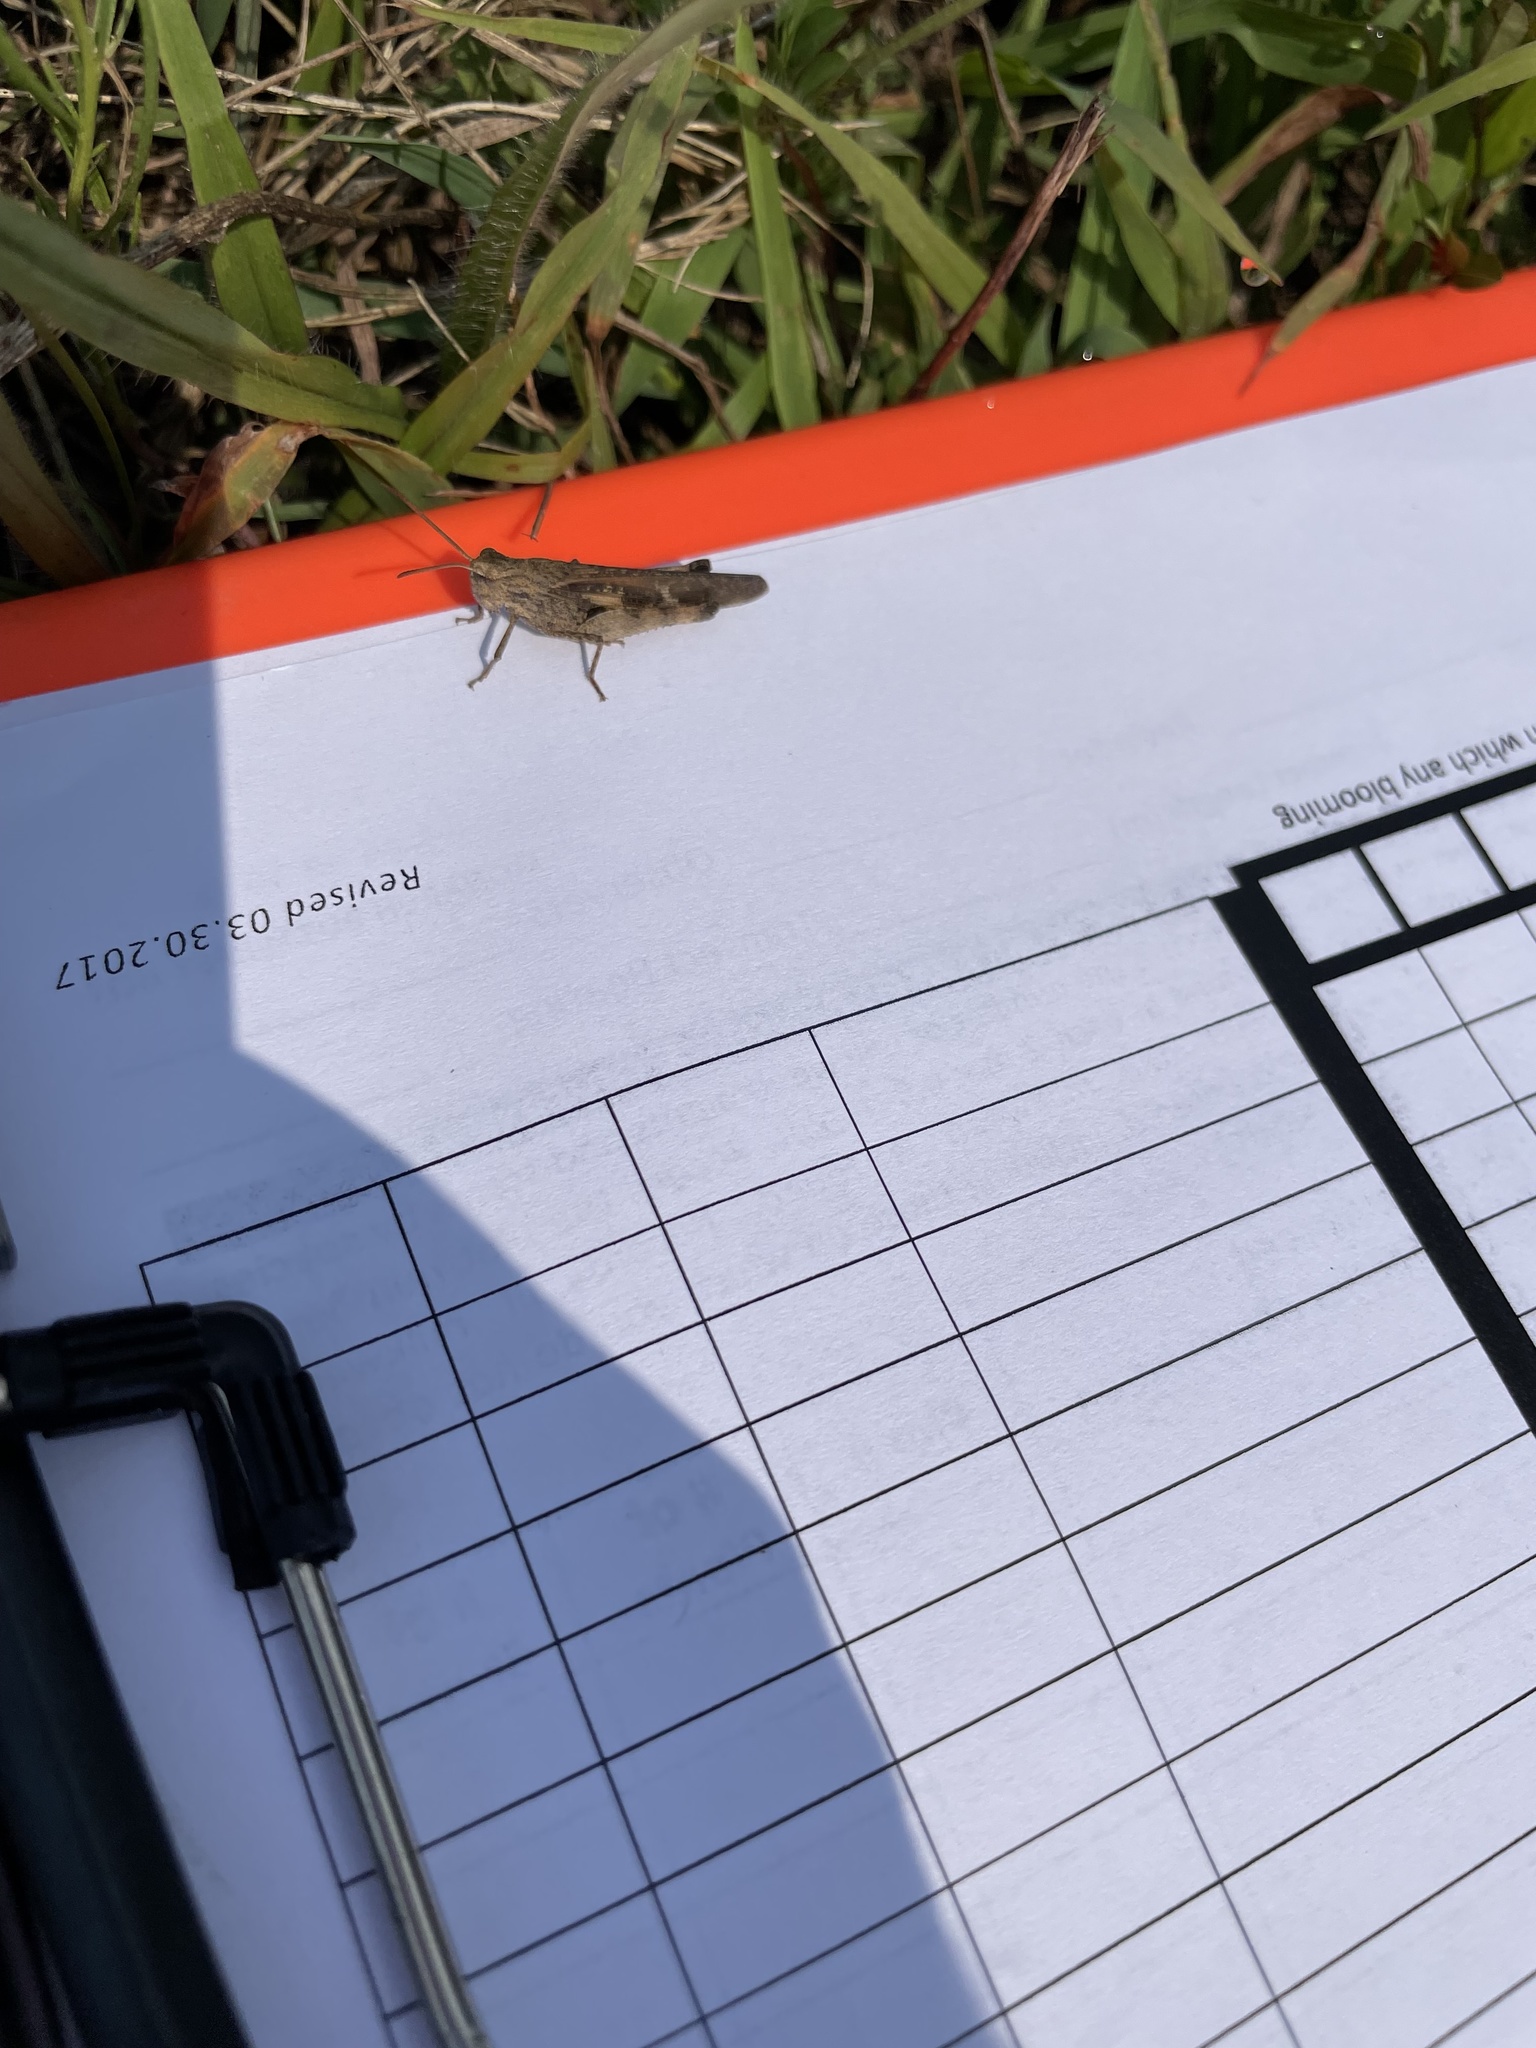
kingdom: Animalia
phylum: Arthropoda
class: Insecta
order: Orthoptera
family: Acrididae
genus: Chortophaga
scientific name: Chortophaga viridifasciata
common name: Green-striped grasshopper
